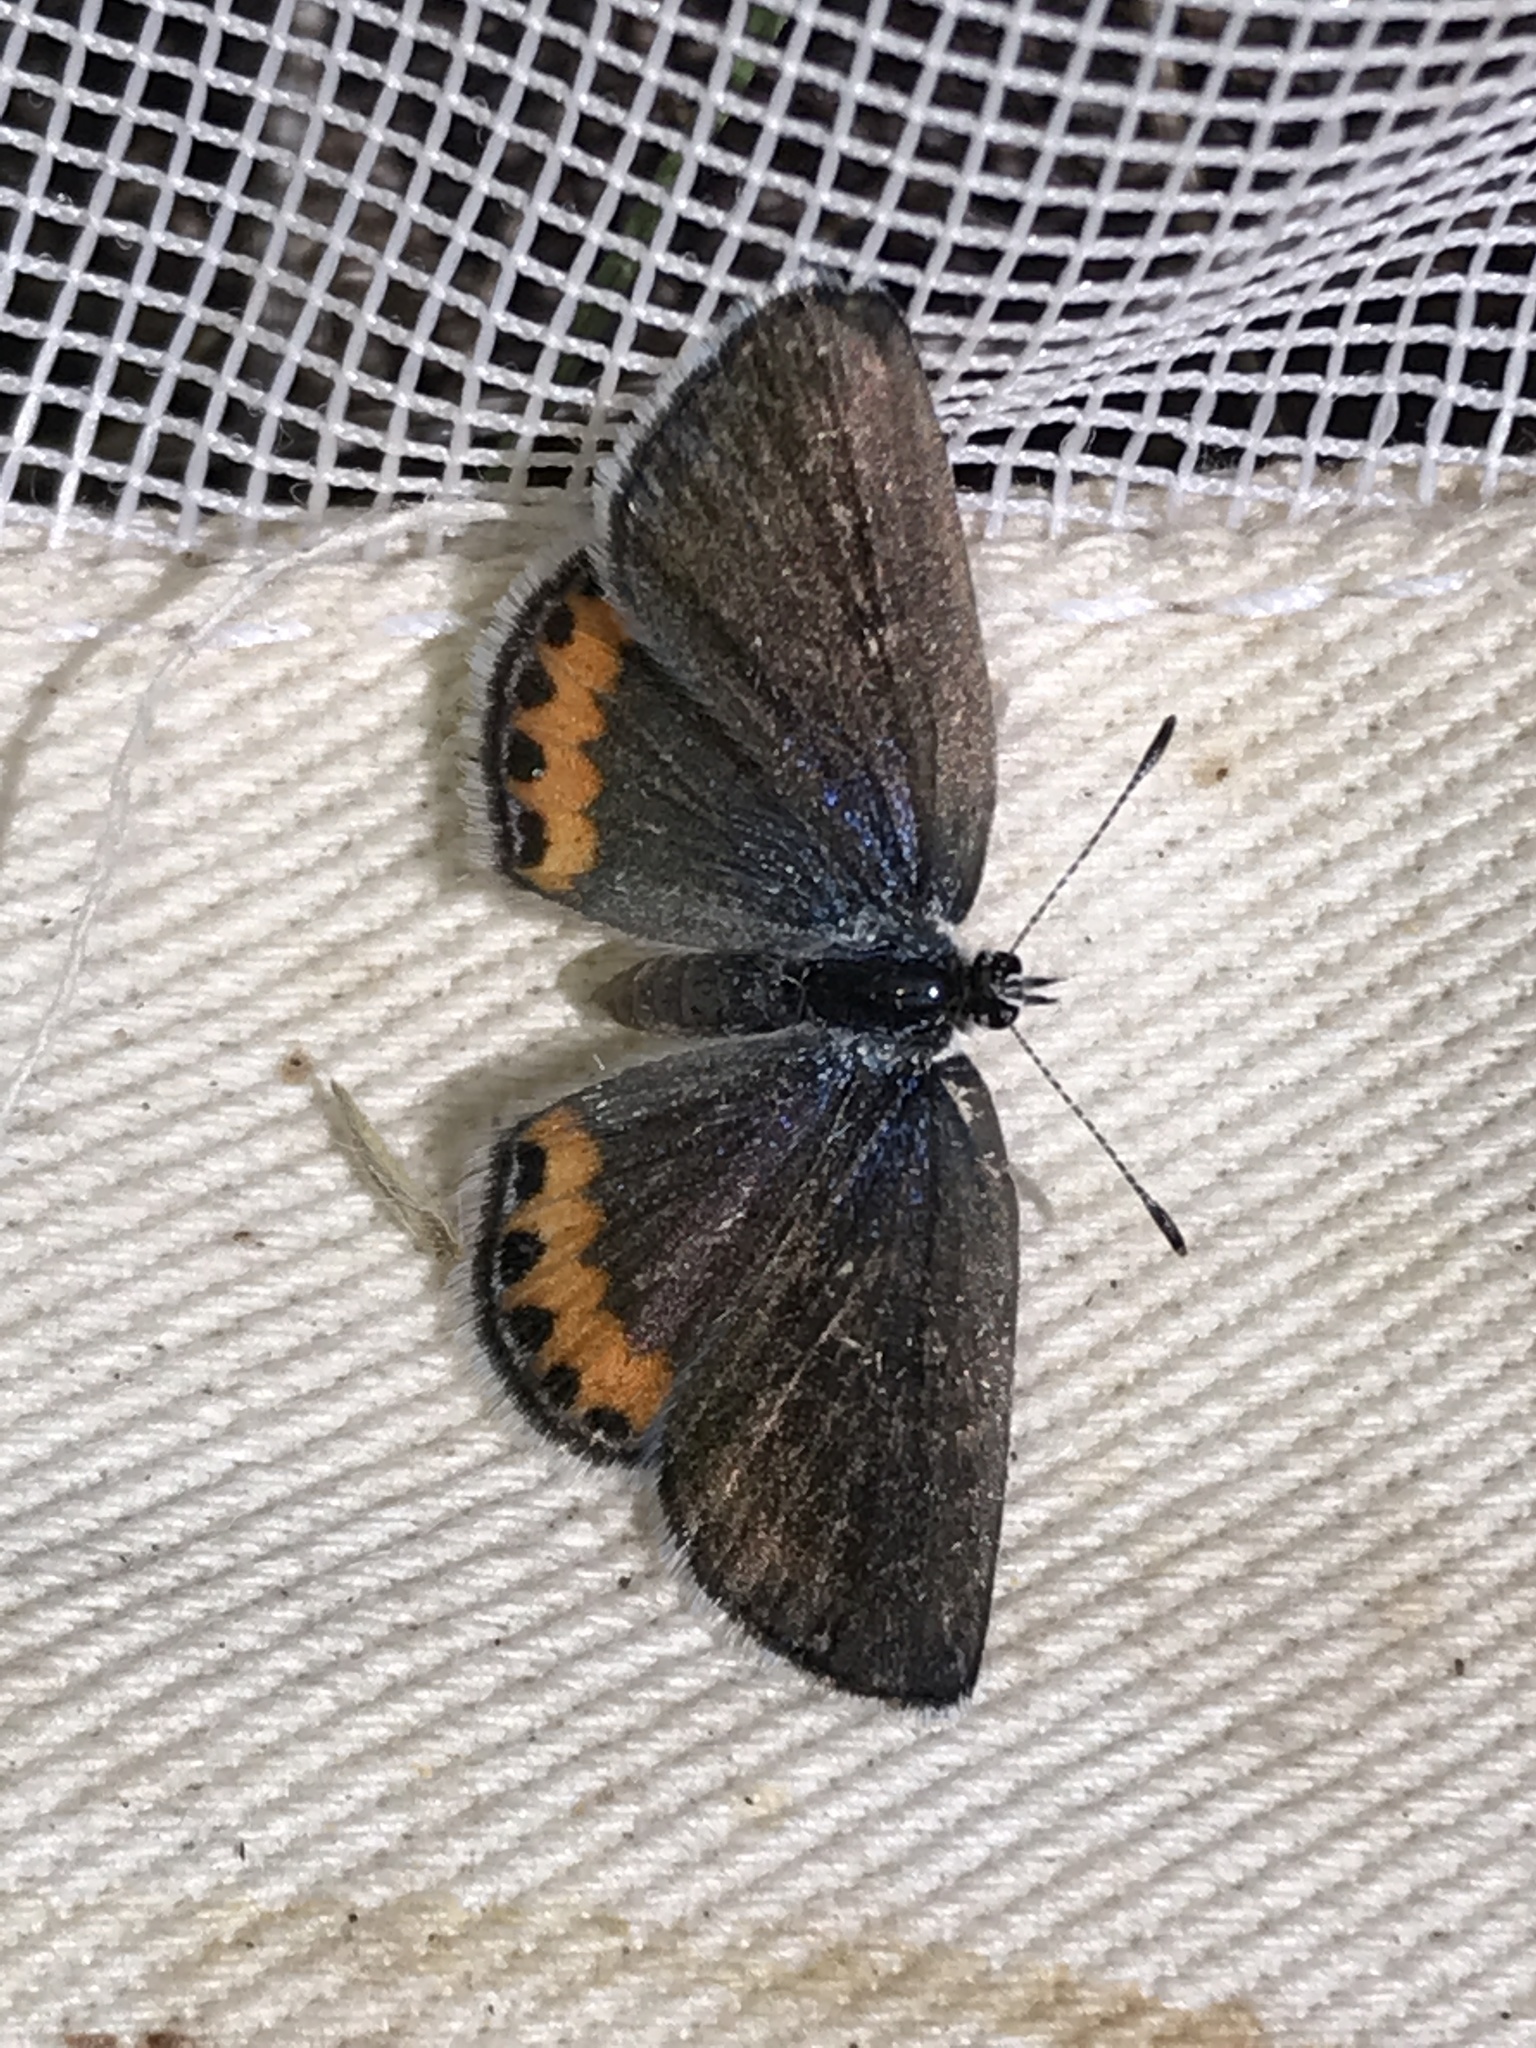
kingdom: Animalia
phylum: Arthropoda
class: Insecta
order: Lepidoptera
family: Lycaenidae
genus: Icaricia
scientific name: Icaricia lupini
